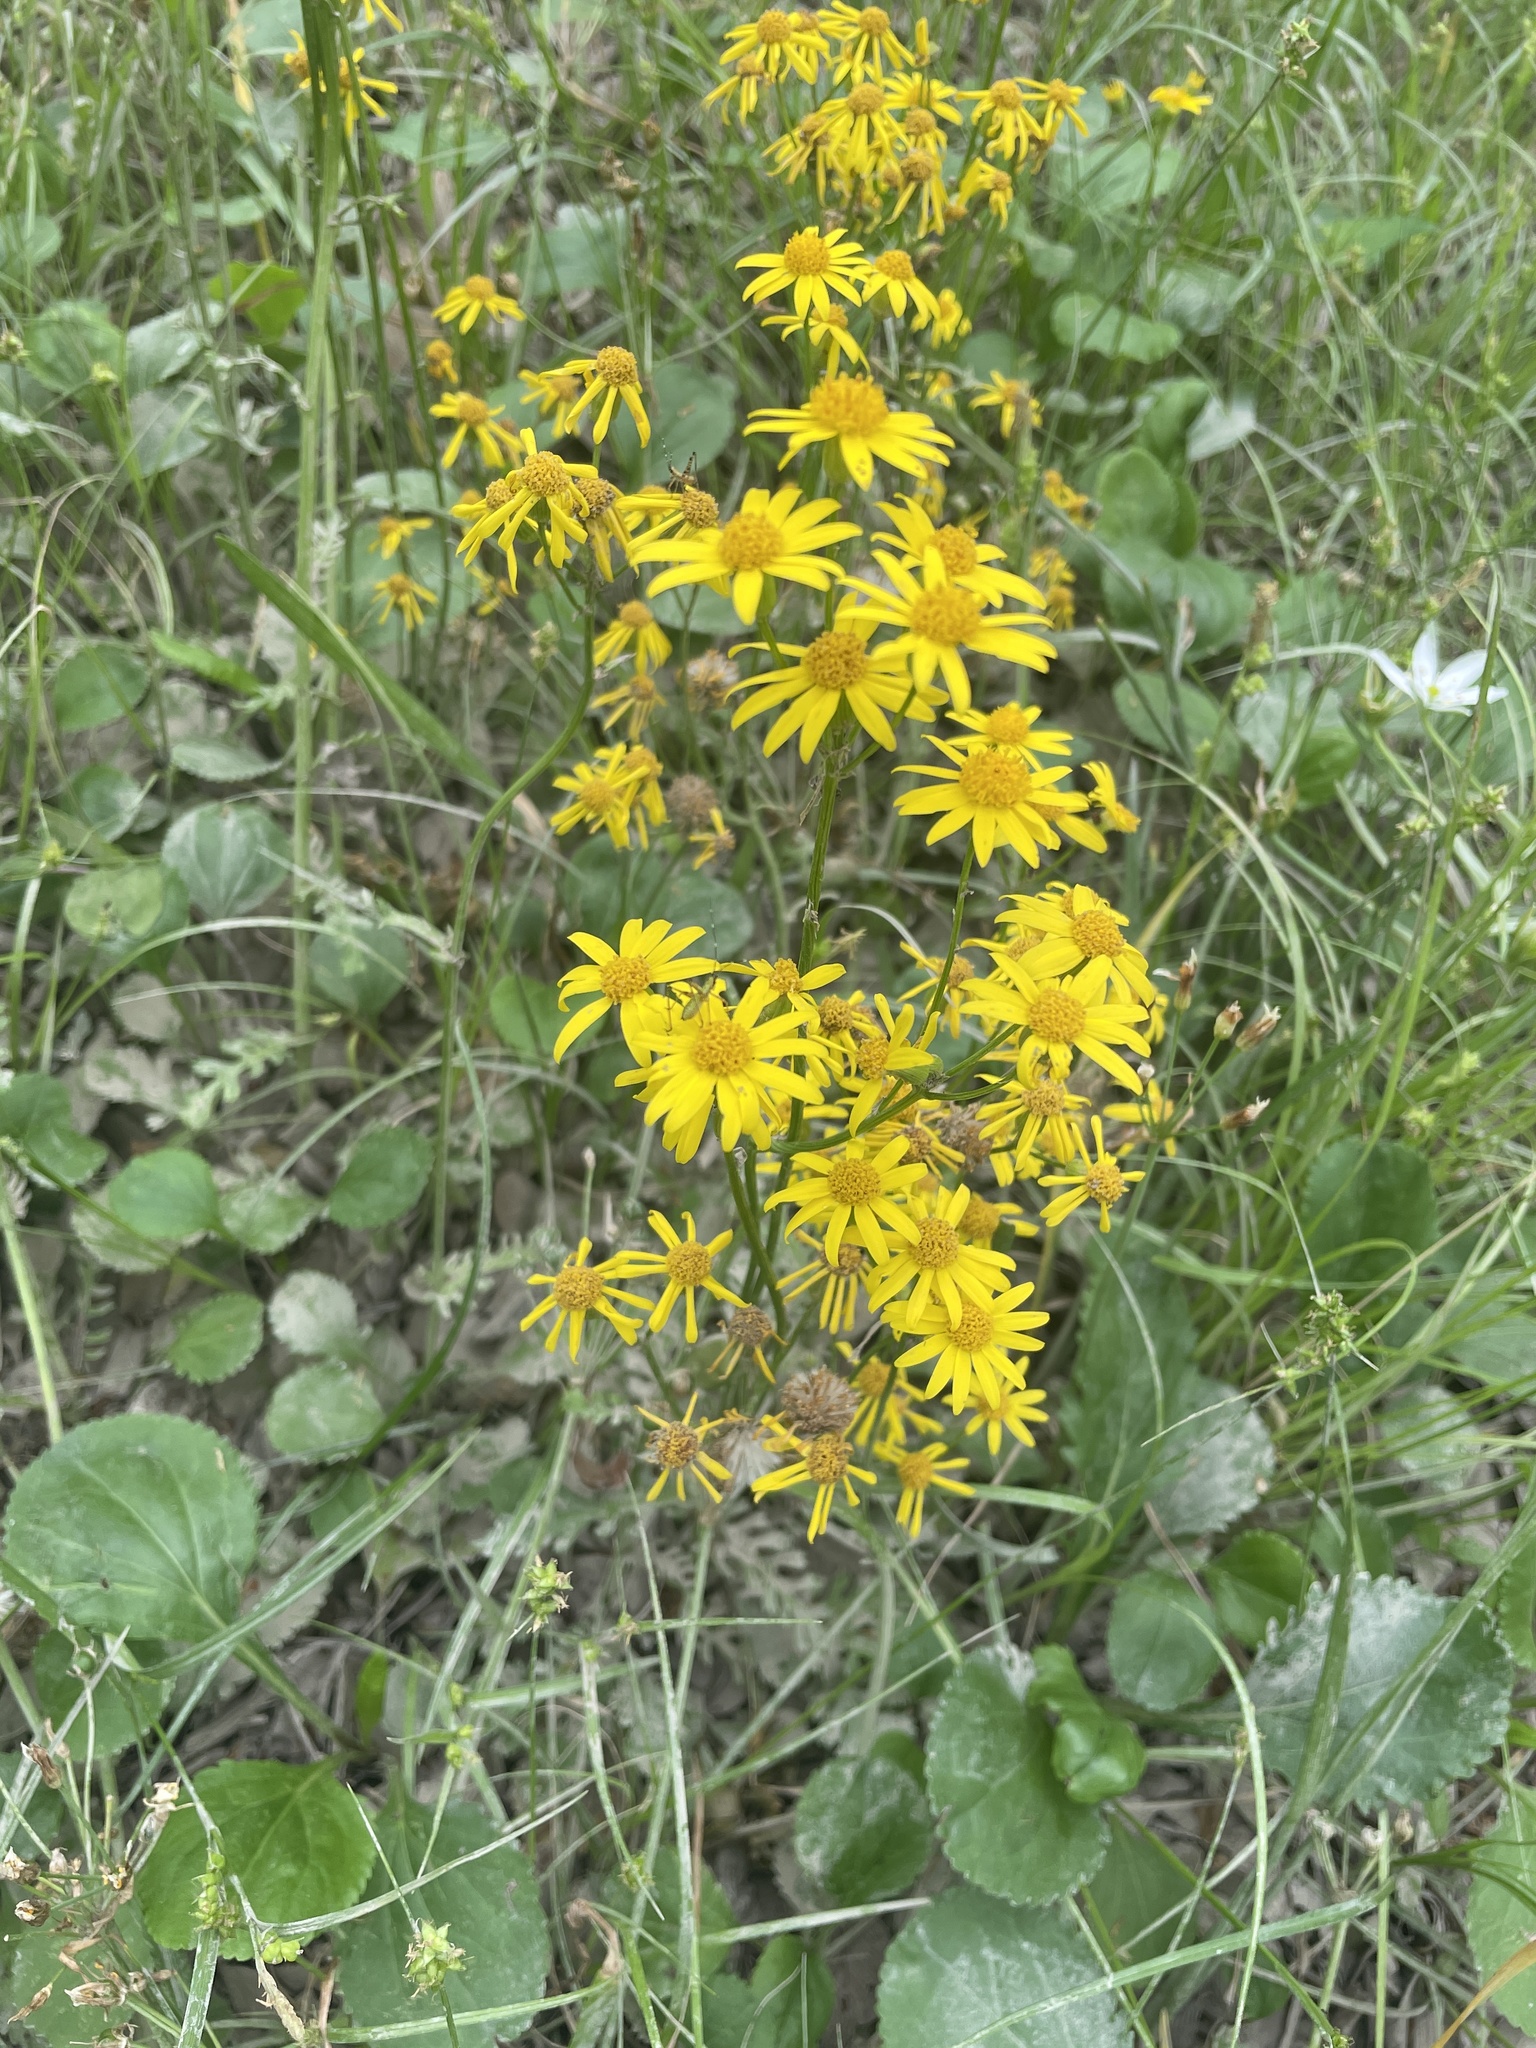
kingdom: Plantae
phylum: Tracheophyta
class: Magnoliopsida
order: Asterales
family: Asteraceae
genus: Packera
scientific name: Packera obovata
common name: Round-leaf ragwort
